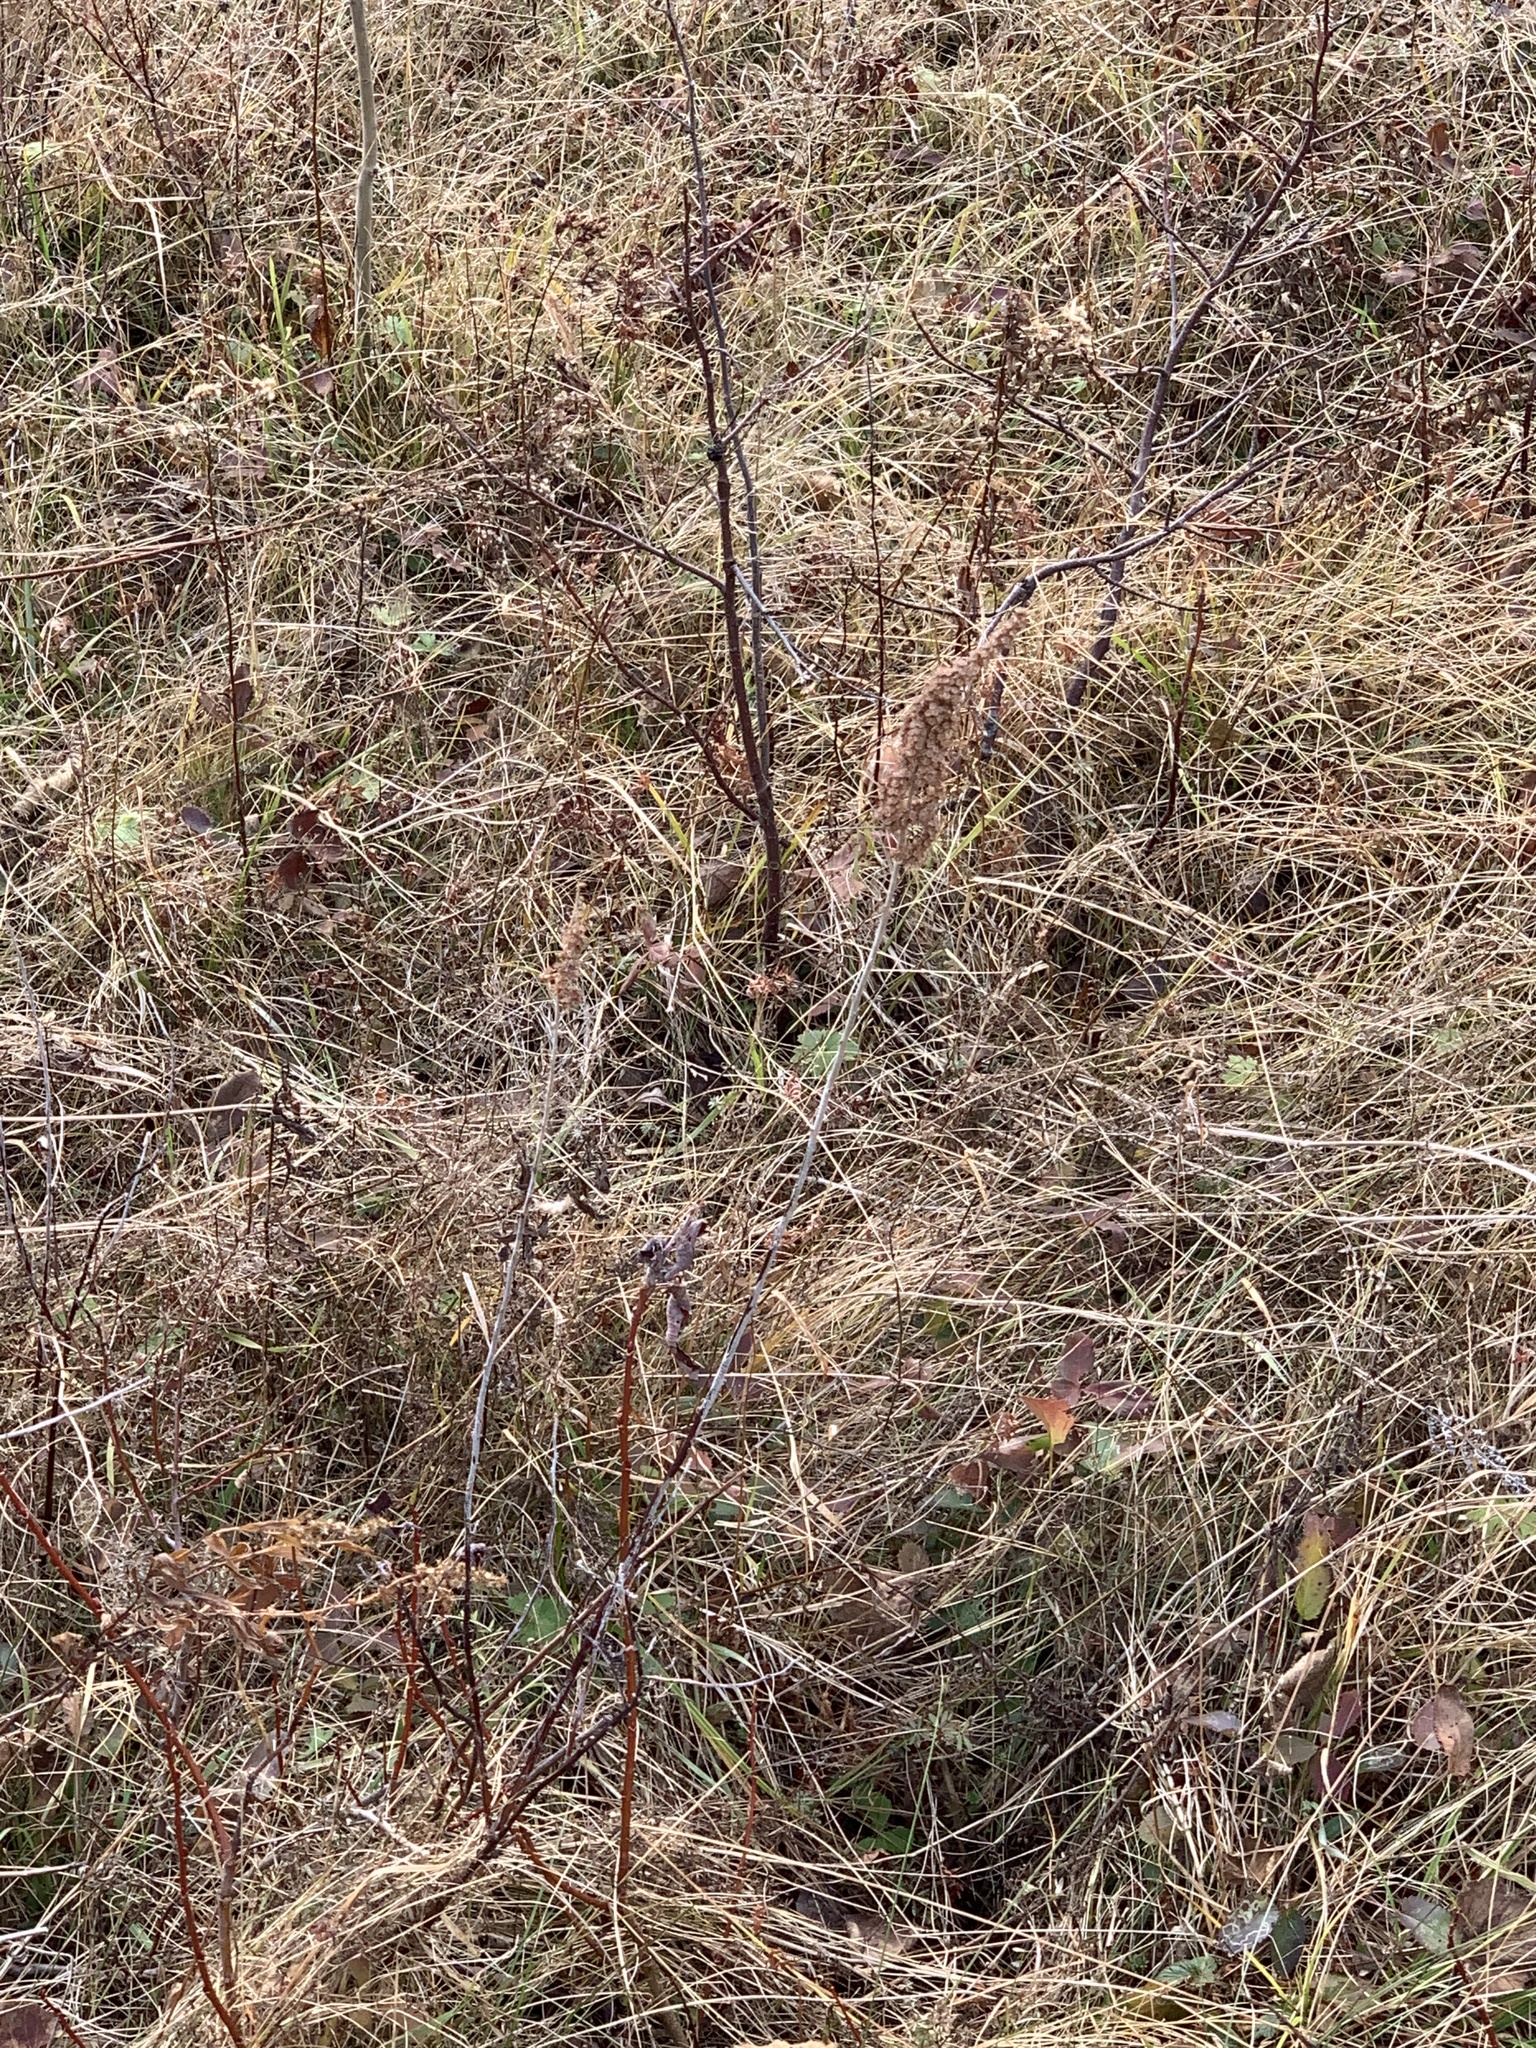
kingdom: Plantae
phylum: Tracheophyta
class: Magnoliopsida
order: Rosales
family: Rosaceae
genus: Spiraea
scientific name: Spiraea tomentosa
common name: Hardhack
